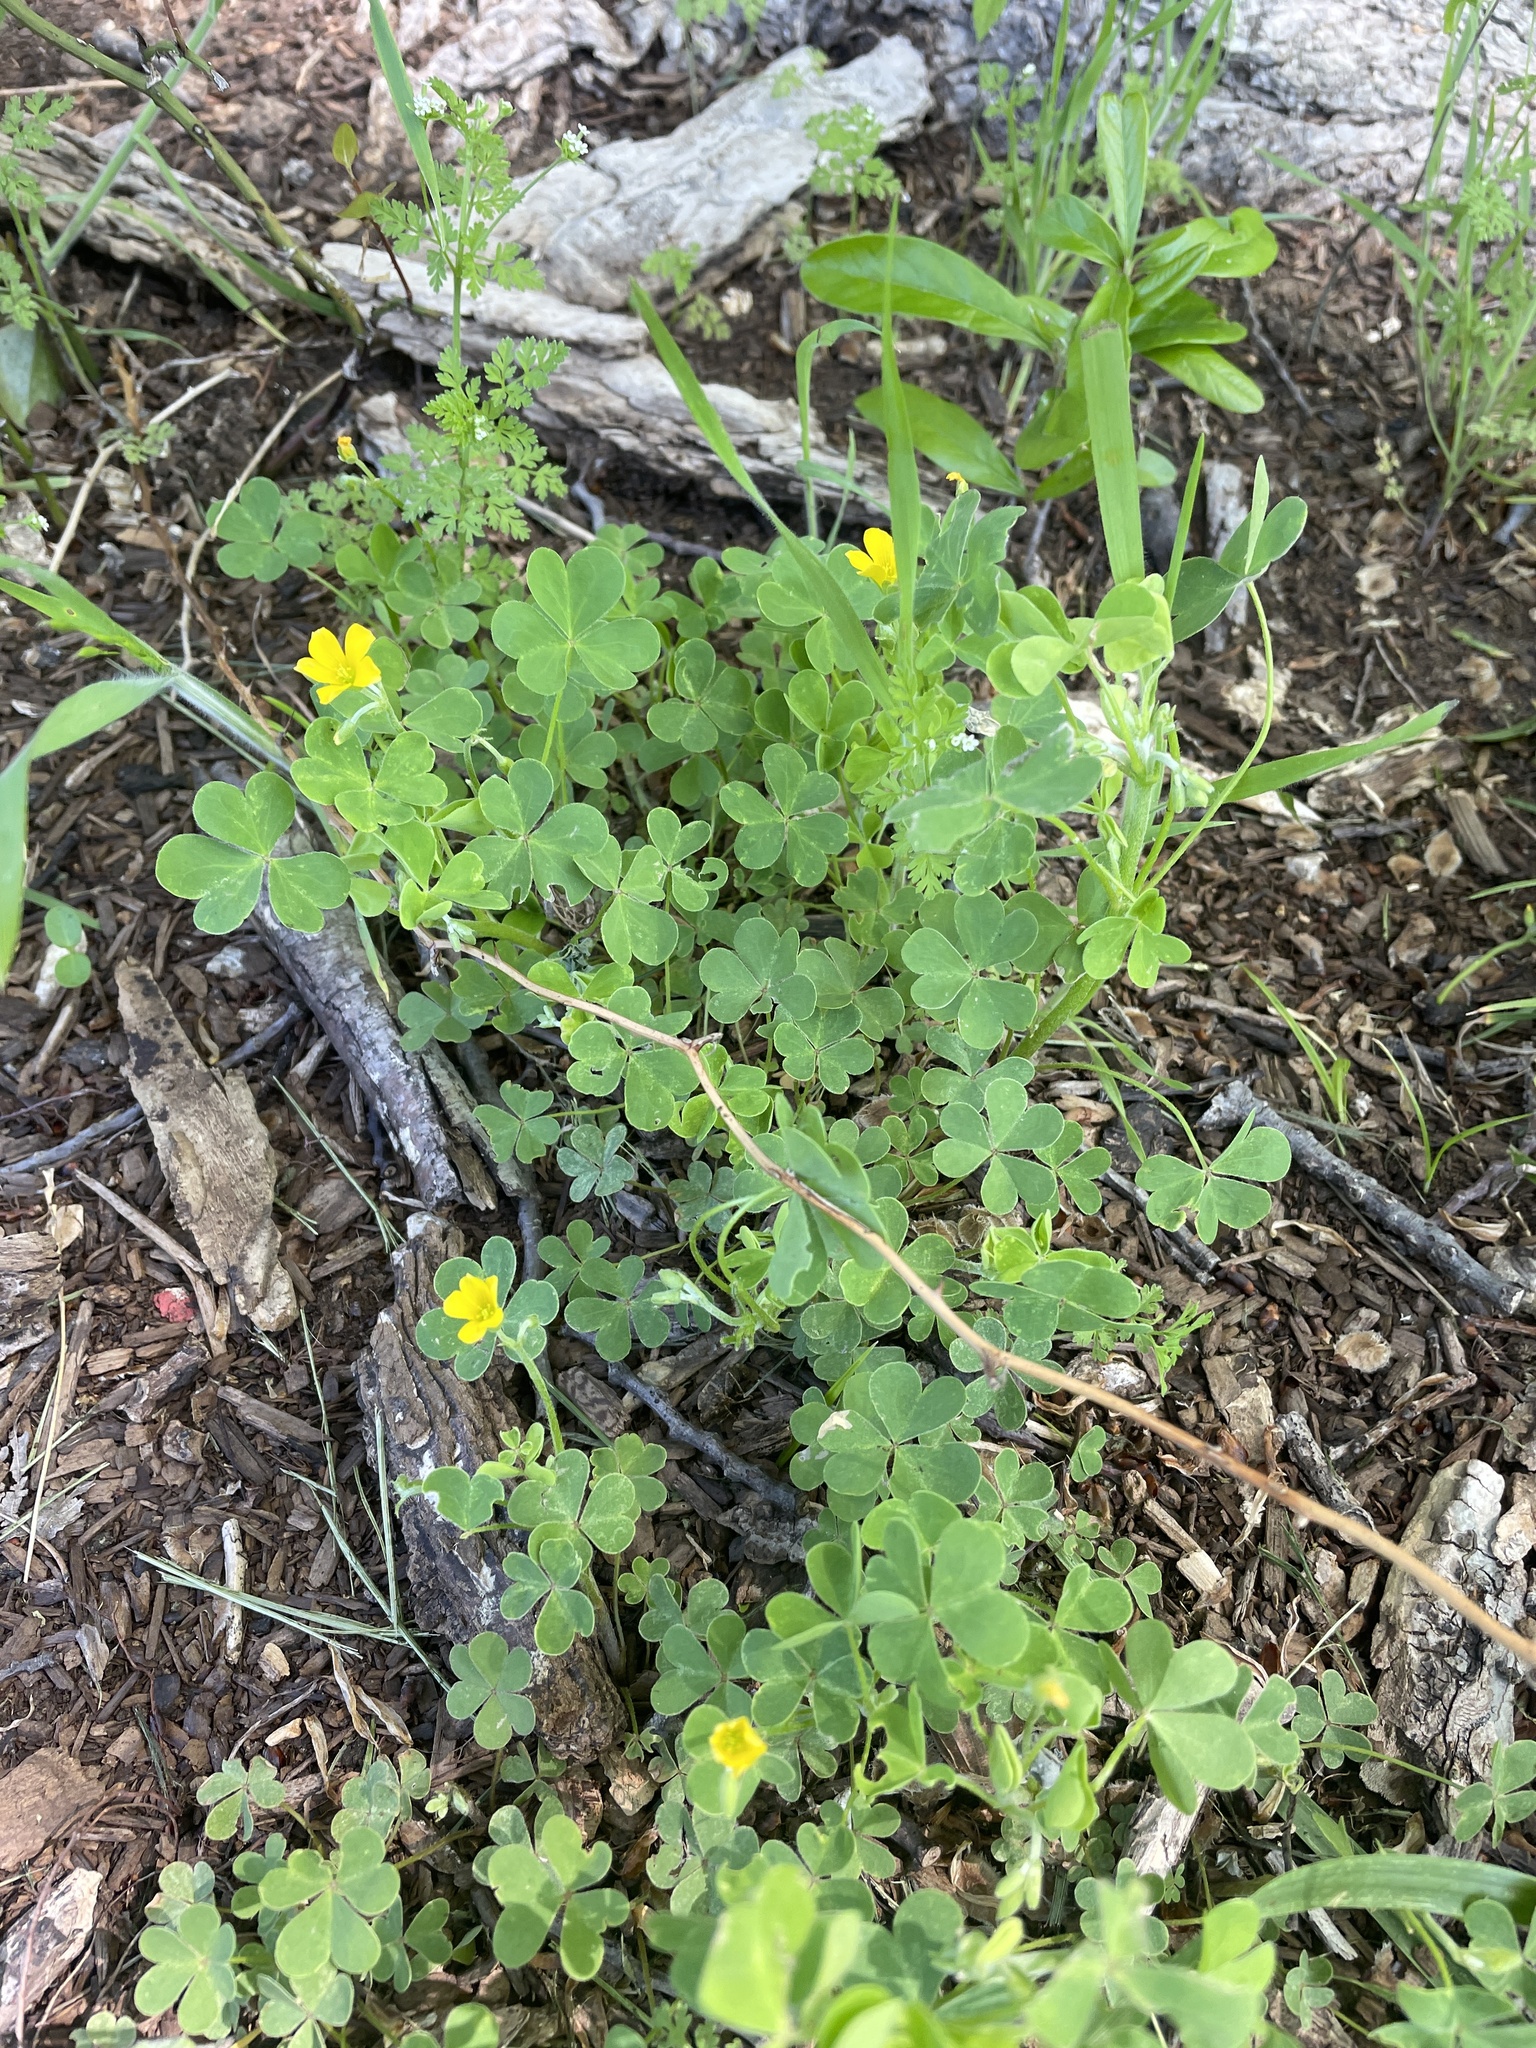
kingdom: Plantae
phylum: Tracheophyta
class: Magnoliopsida
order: Oxalidales
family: Oxalidaceae
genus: Oxalis
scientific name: Oxalis dillenii
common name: Sussex yellow-sorrel
